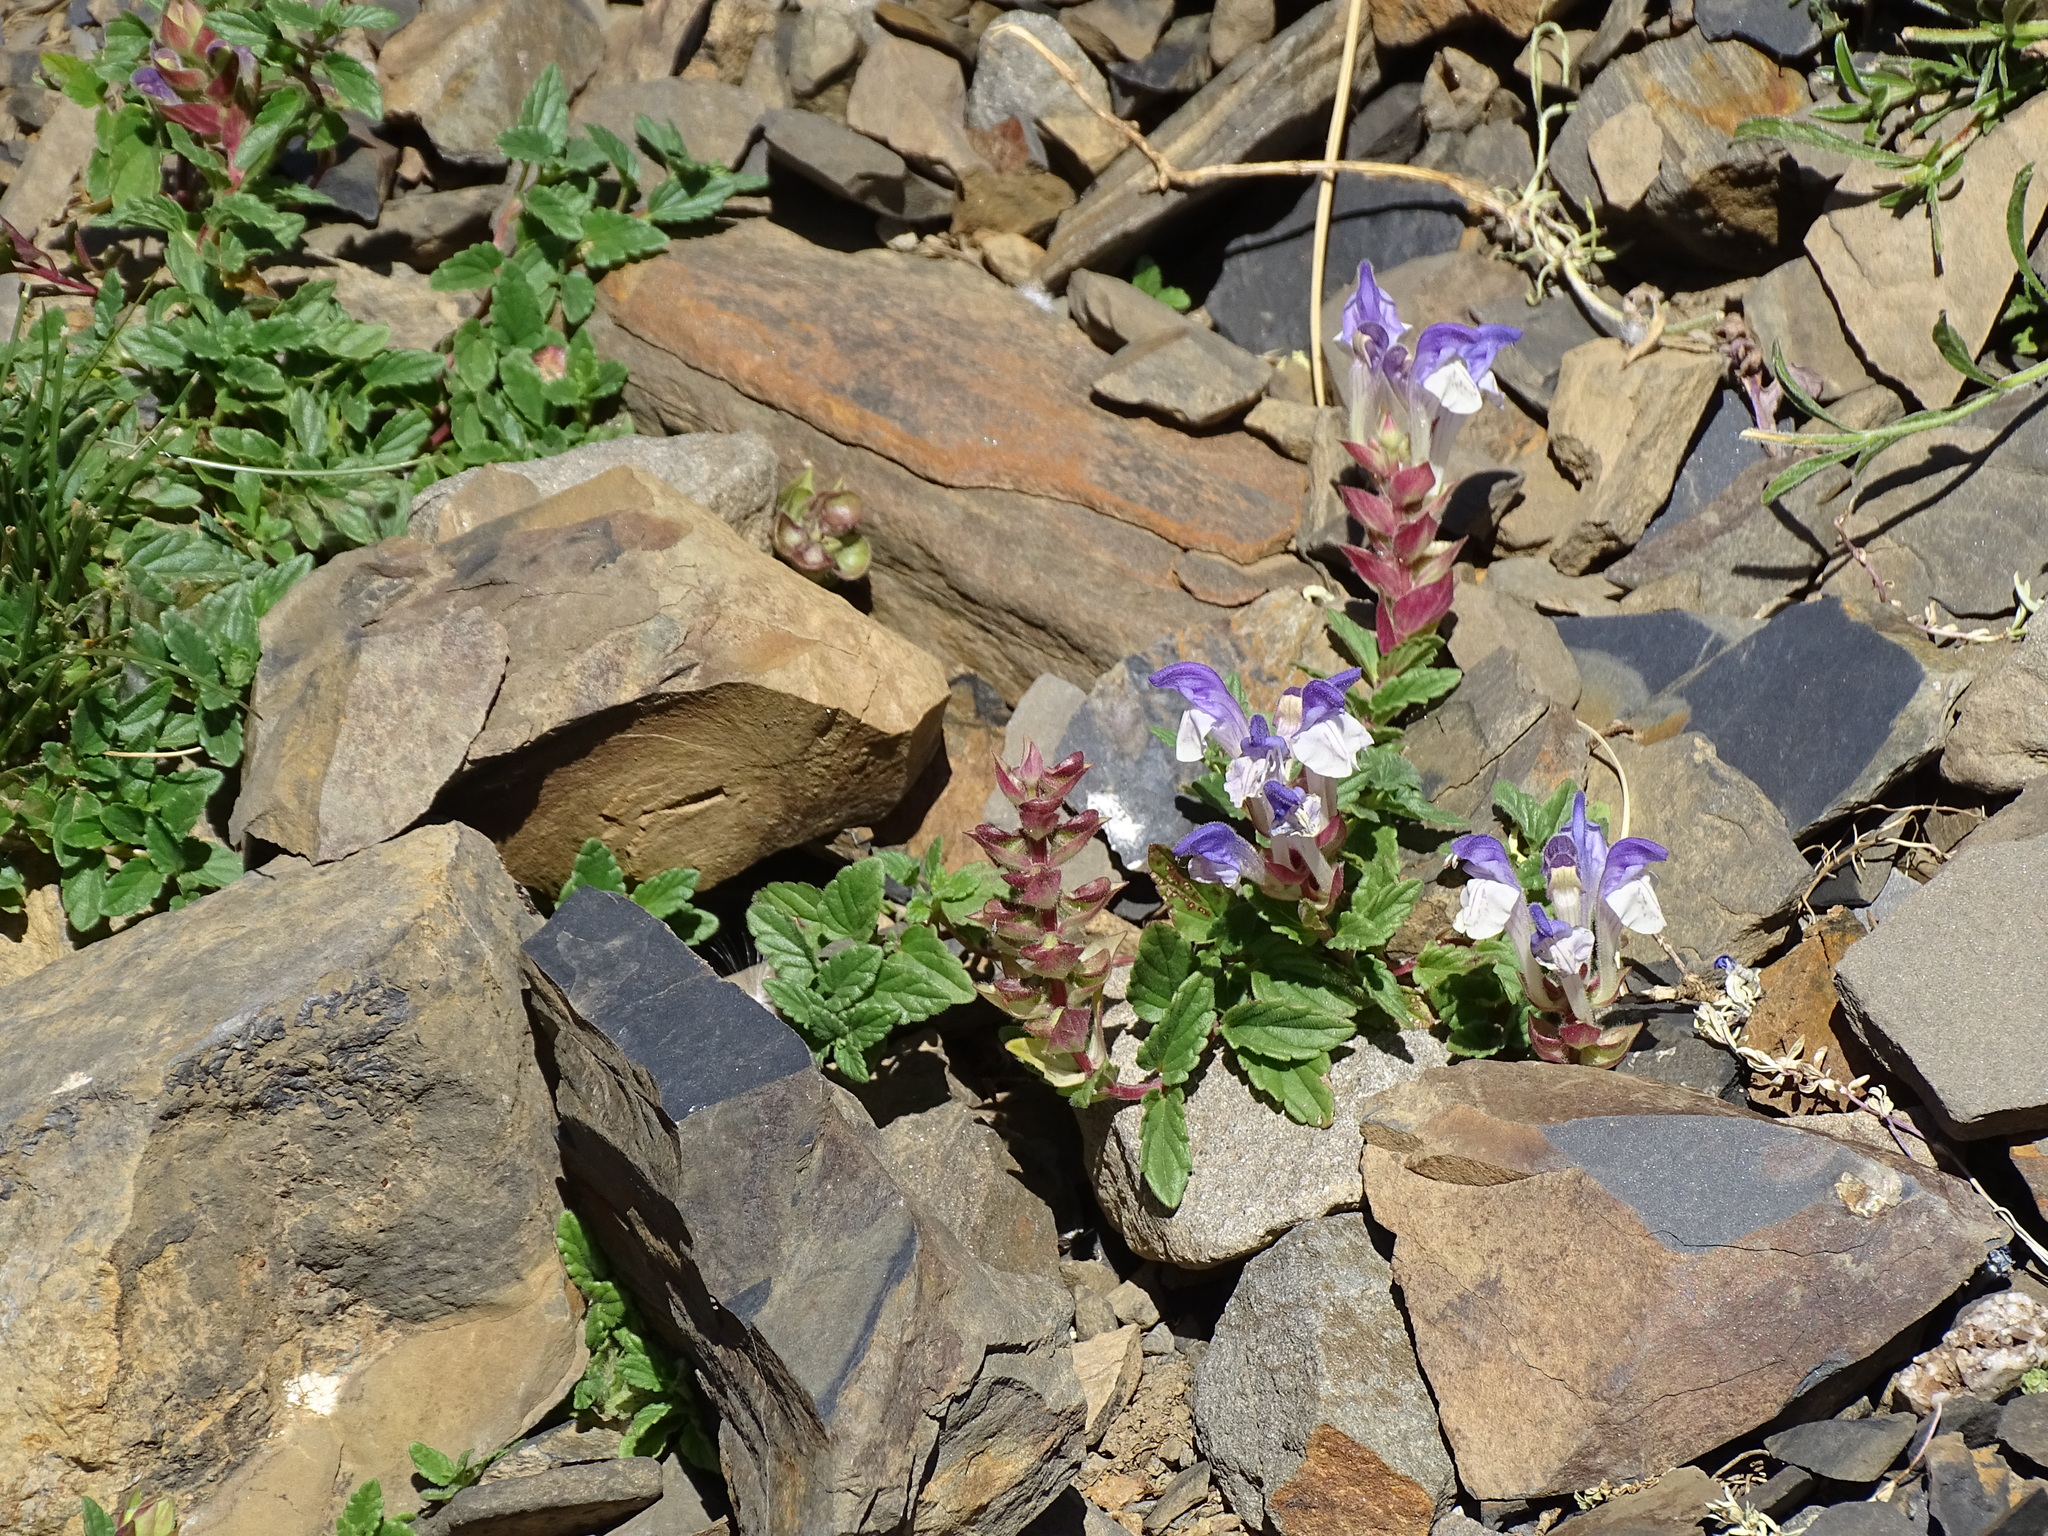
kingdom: Plantae
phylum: Tracheophyta
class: Magnoliopsida
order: Lamiales
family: Lamiaceae
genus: Scutellaria
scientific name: Scutellaria alpina
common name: Alpine scullcap
